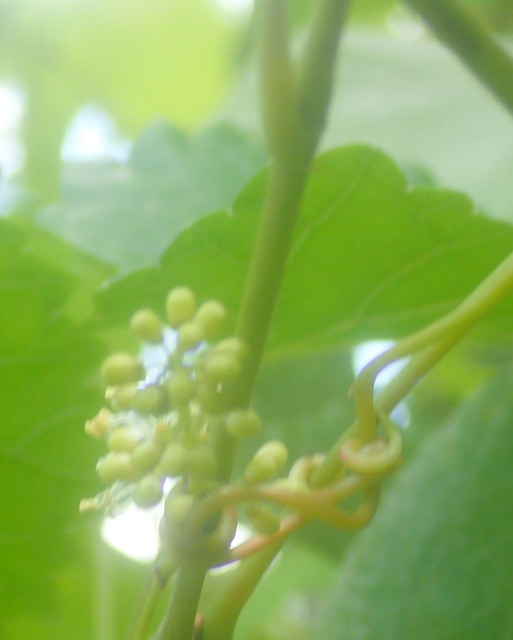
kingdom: Plantae
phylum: Tracheophyta
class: Magnoliopsida
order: Vitales
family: Vitaceae
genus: Vitis
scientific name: Vitis rotundifolia
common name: Muscadine grape
